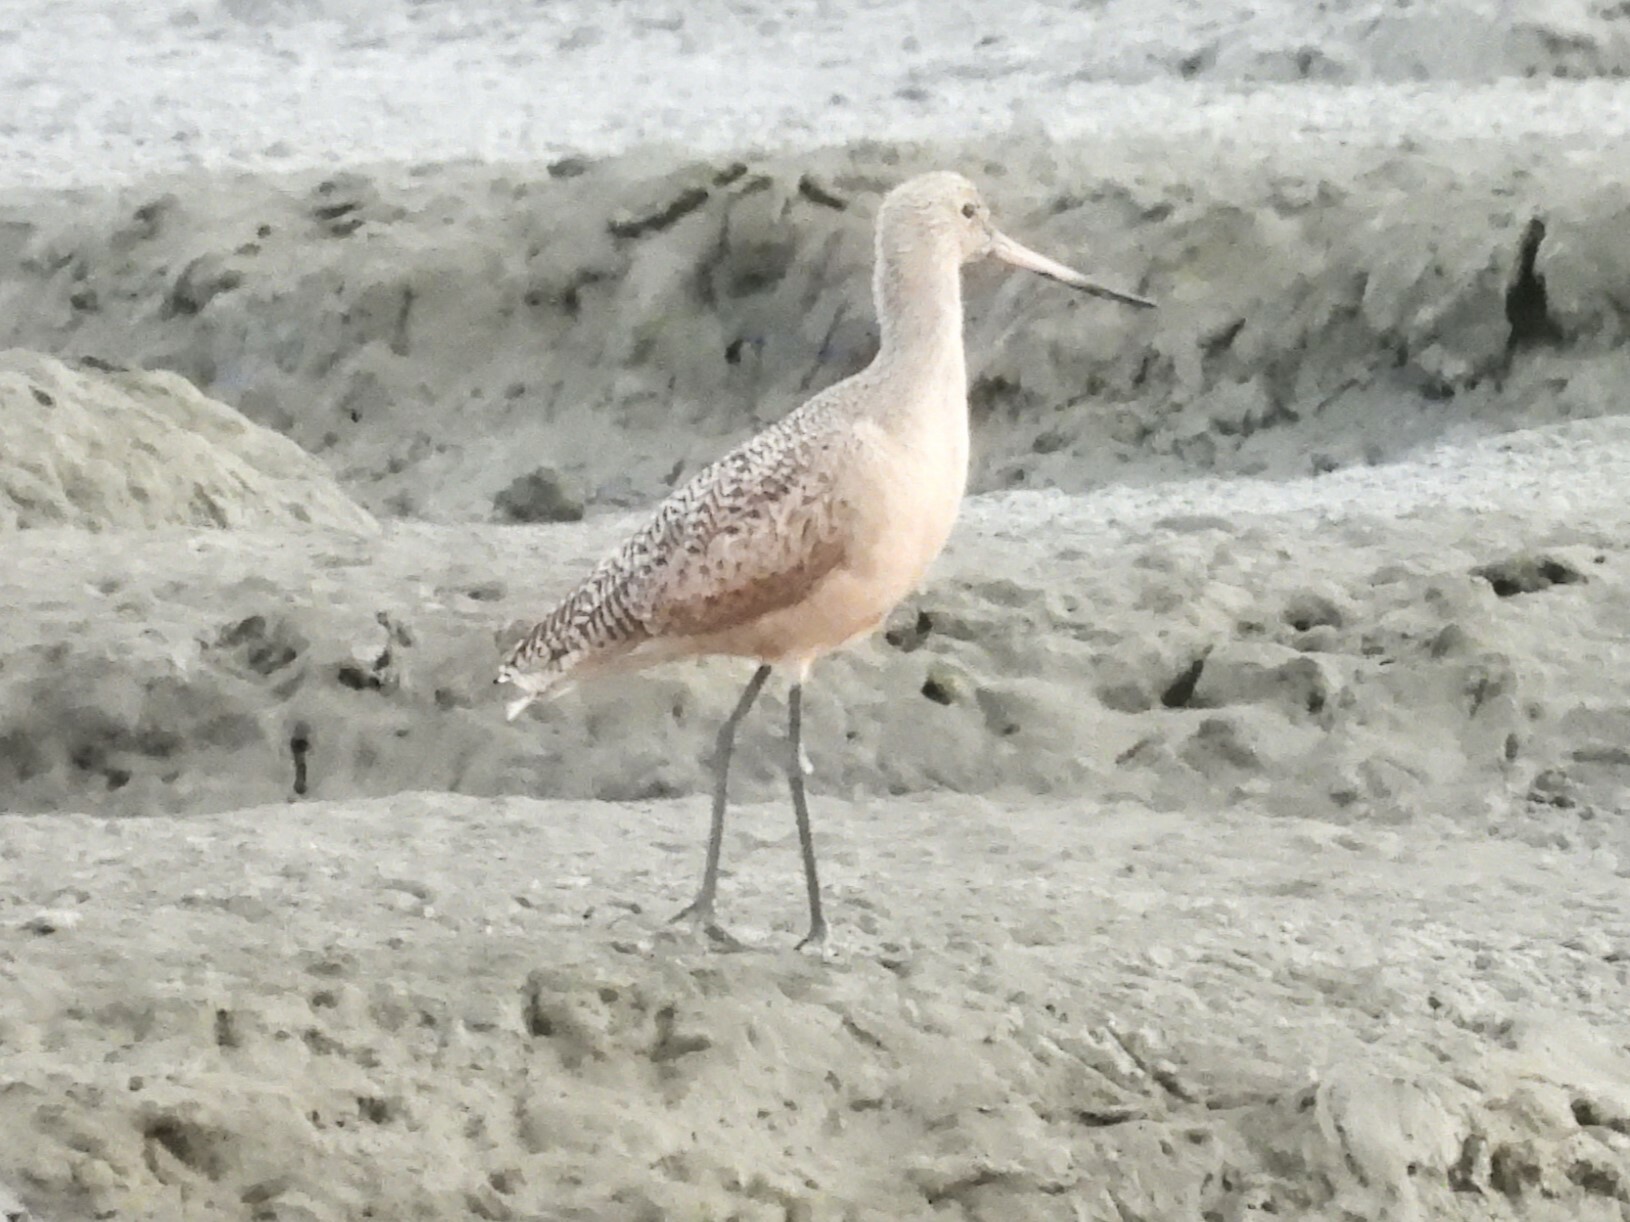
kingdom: Animalia
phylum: Chordata
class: Aves
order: Charadriiformes
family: Scolopacidae
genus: Limosa
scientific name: Limosa fedoa
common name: Marbled godwit
